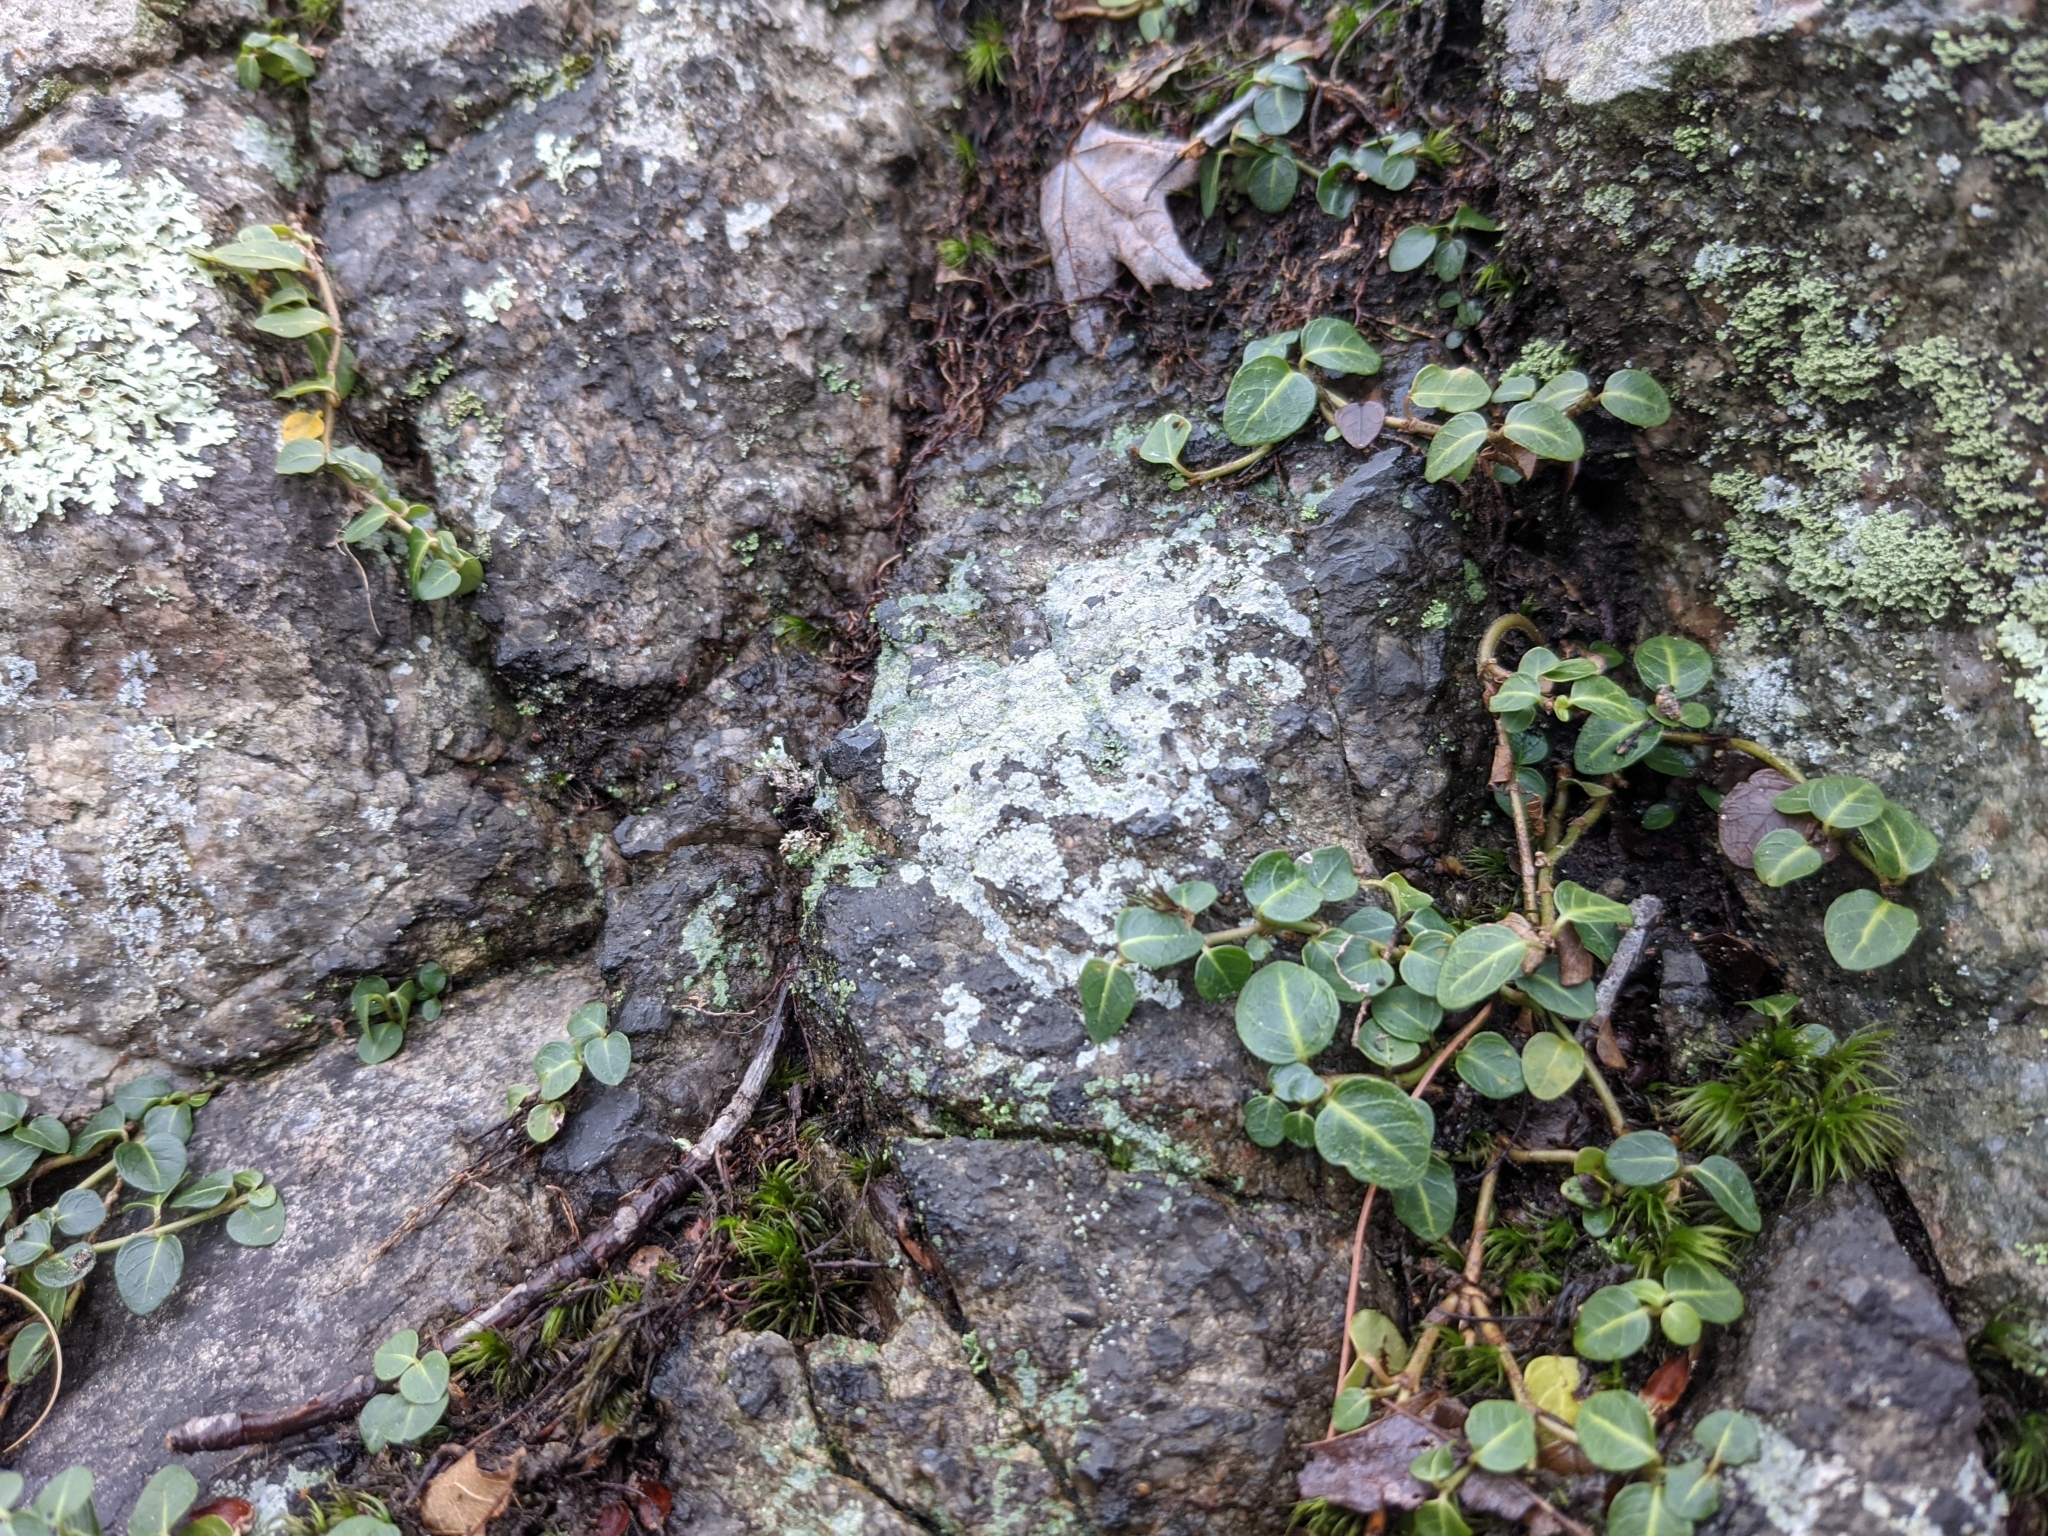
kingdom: Plantae
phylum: Tracheophyta
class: Magnoliopsida
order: Gentianales
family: Rubiaceae
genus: Mitchella
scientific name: Mitchella repens
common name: Partridge-berry
